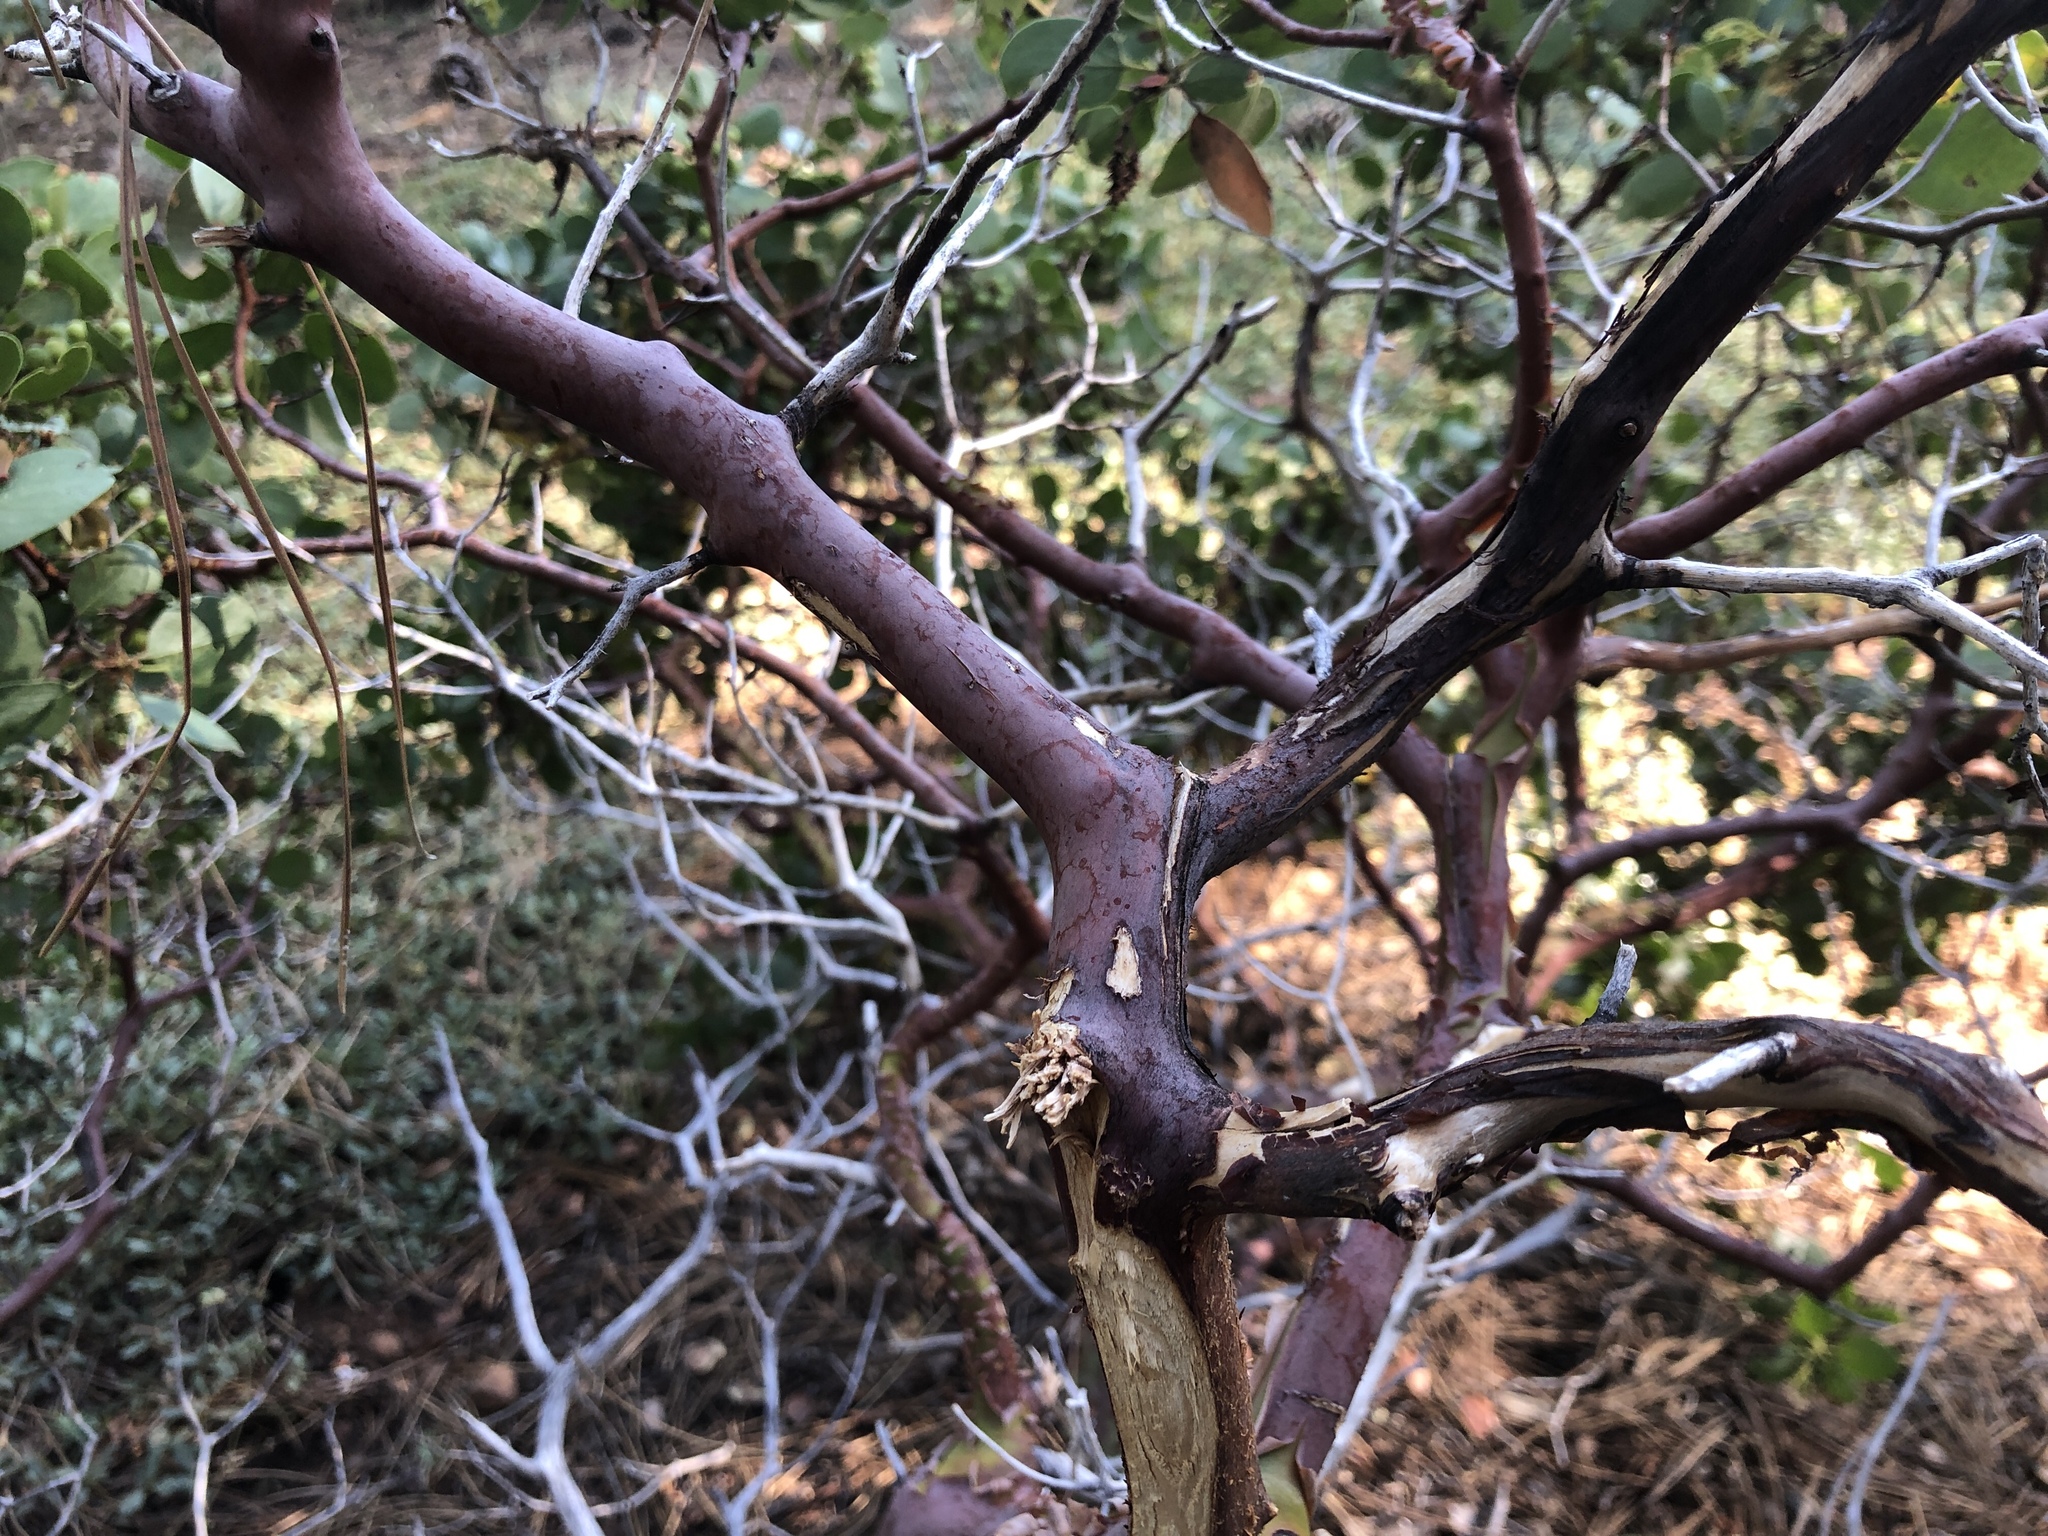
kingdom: Plantae
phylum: Tracheophyta
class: Magnoliopsida
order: Ericales
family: Ericaceae
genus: Arctostaphylos
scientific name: Arctostaphylos patula
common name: Green-leaf manzanita
